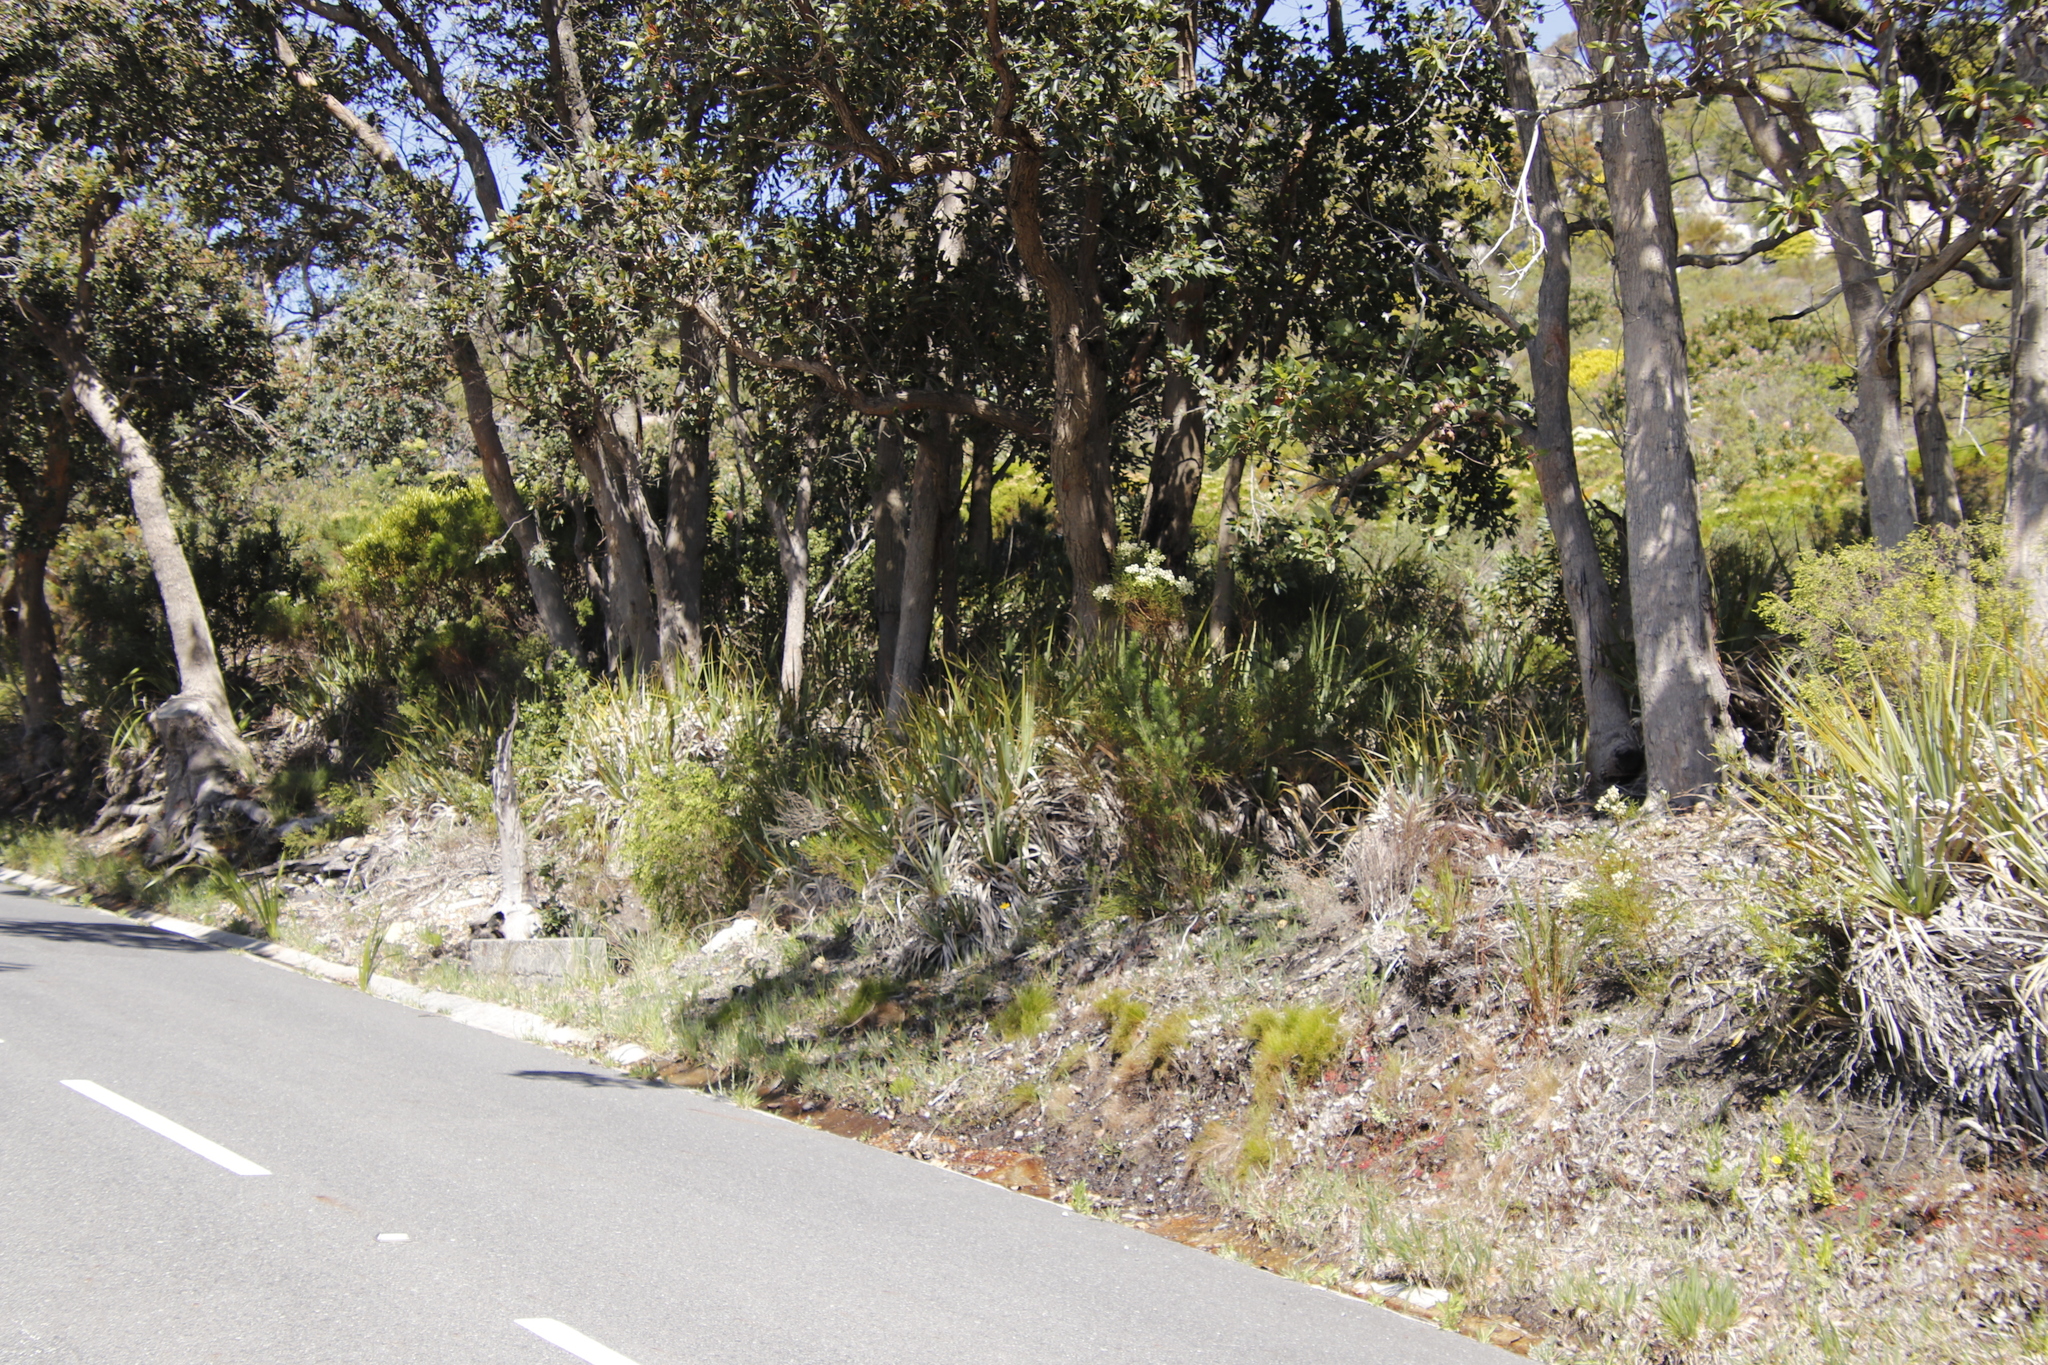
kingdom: Plantae
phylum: Tracheophyta
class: Liliopsida
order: Poales
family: Thurniaceae
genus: Prionium
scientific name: Prionium serratum
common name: Palmiet
